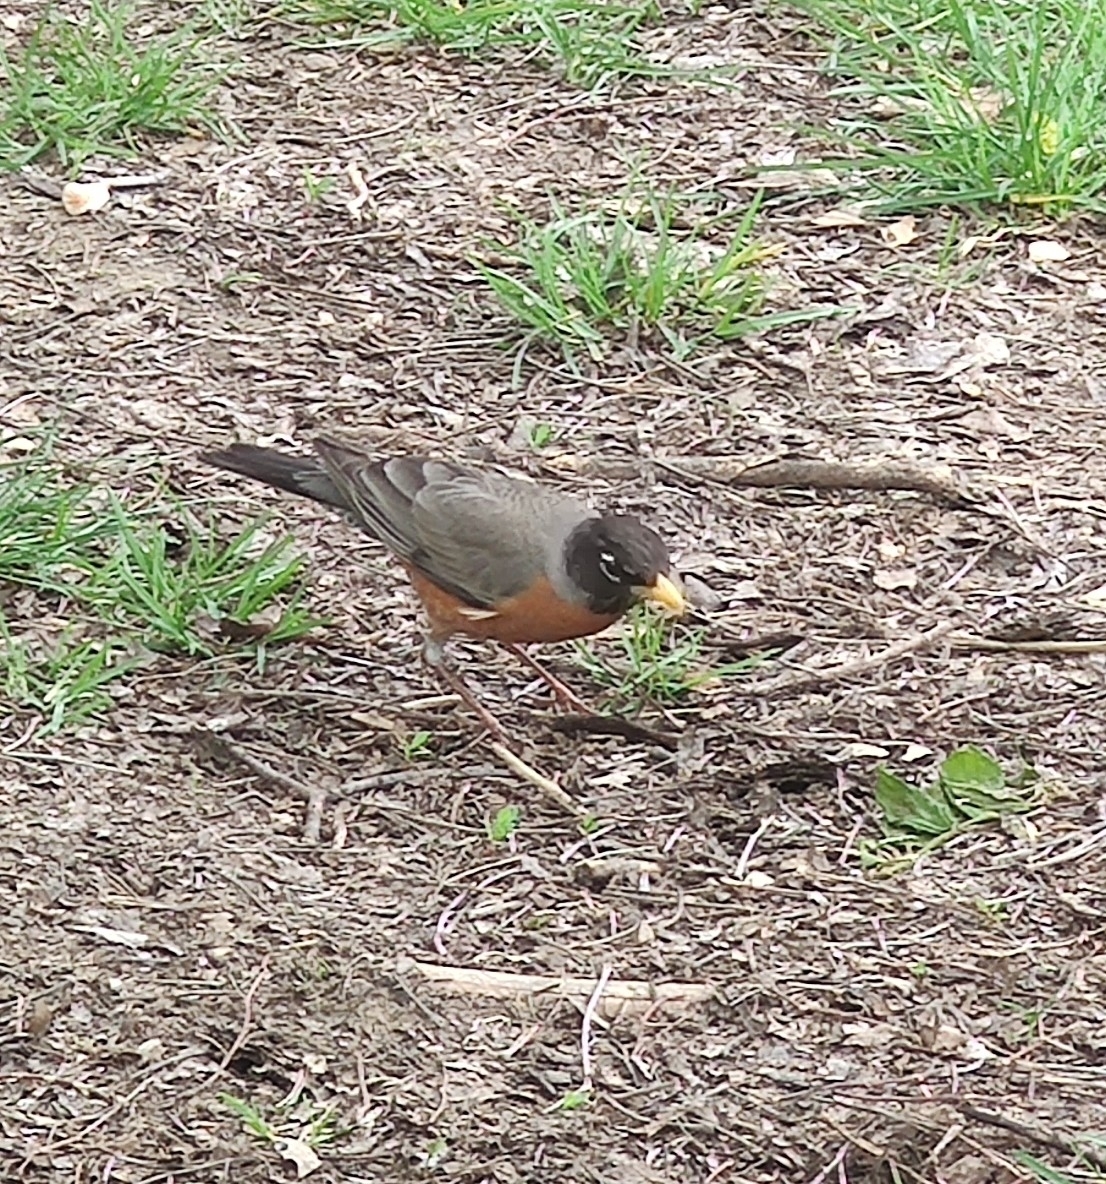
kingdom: Animalia
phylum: Chordata
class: Aves
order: Passeriformes
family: Turdidae
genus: Turdus
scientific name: Turdus migratorius
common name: American robin
